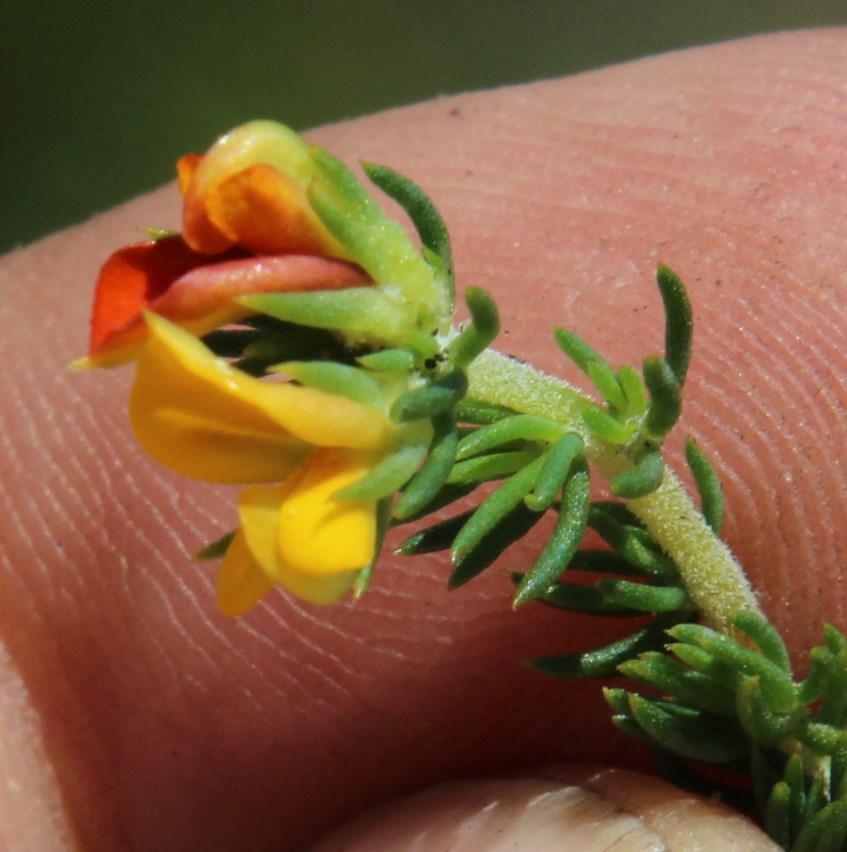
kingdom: Plantae
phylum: Tracheophyta
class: Magnoliopsida
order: Fabales
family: Fabaceae
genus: Aspalathus
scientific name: Aspalathus juniperina
